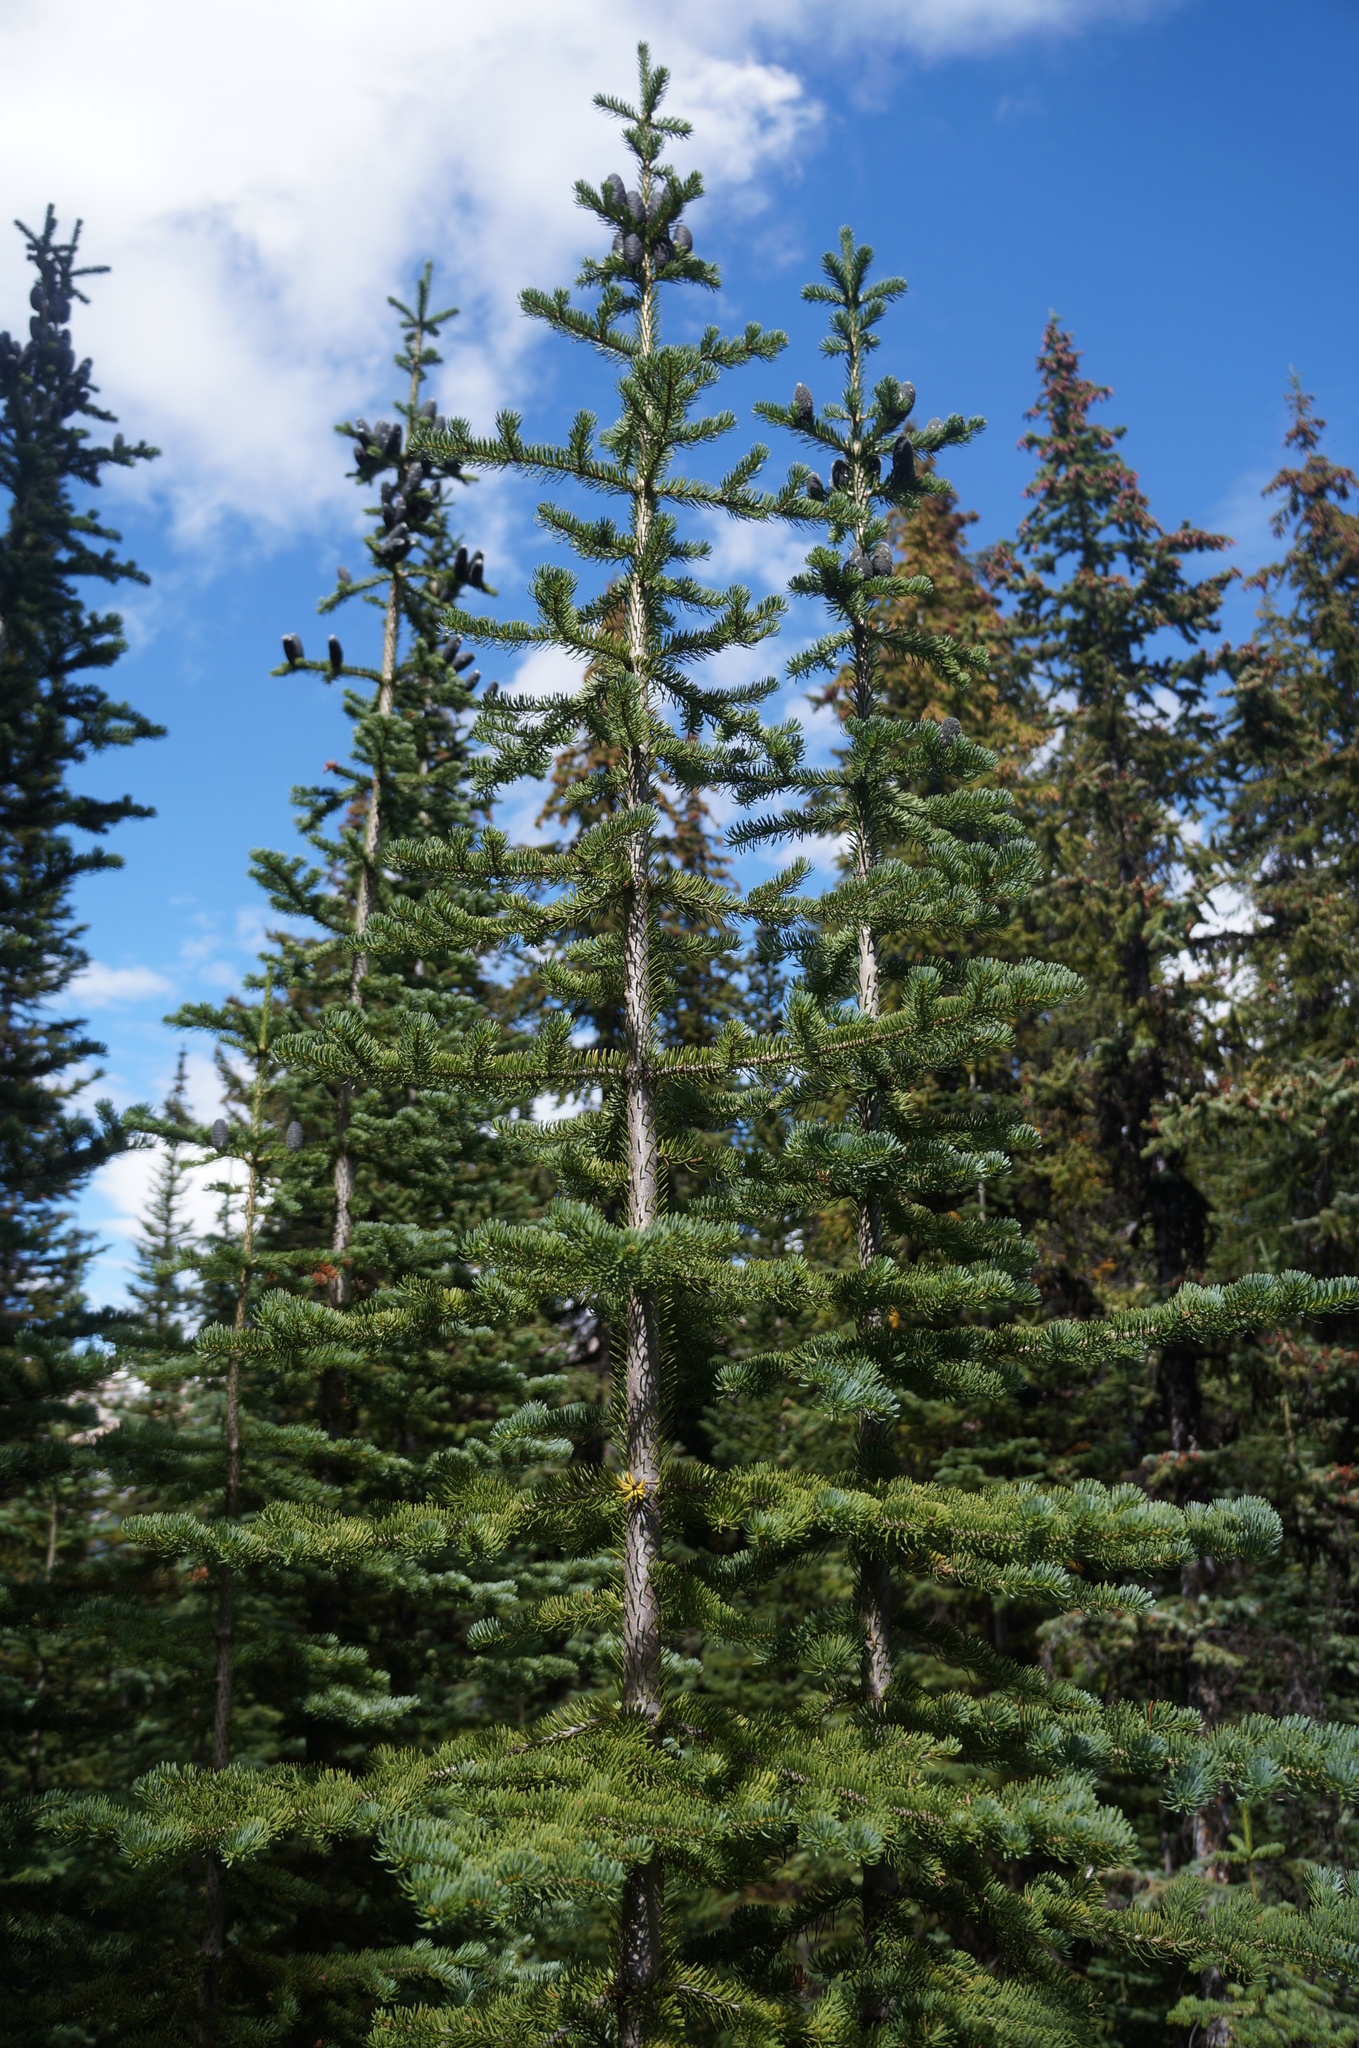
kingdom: Plantae
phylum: Tracheophyta
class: Pinopsida
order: Pinales
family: Pinaceae
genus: Abies
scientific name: Abies lasiocarpa
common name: Subalpine fir
